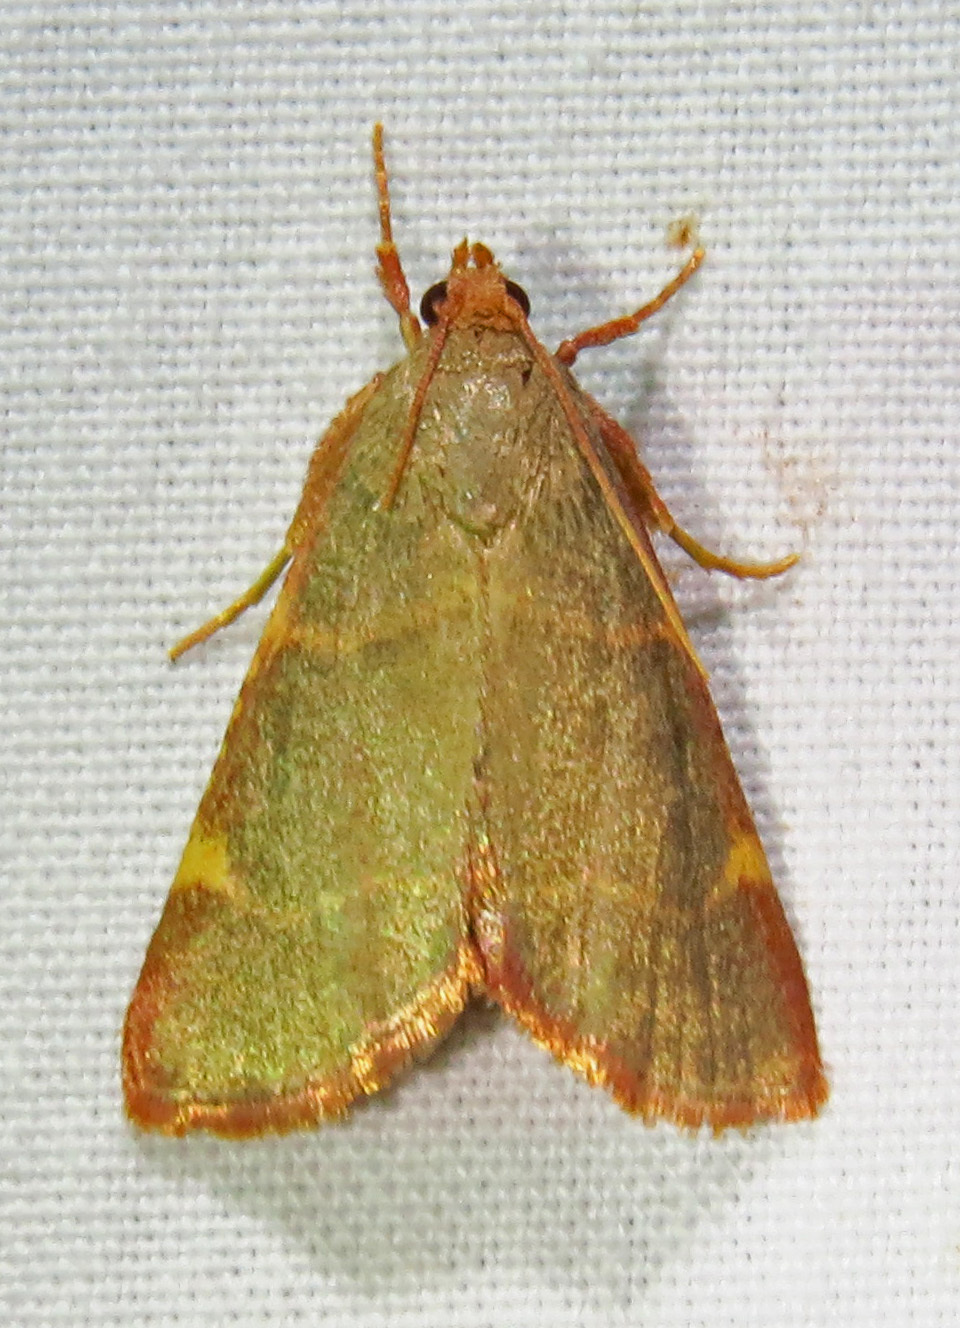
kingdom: Animalia
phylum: Arthropoda
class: Insecta
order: Lepidoptera
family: Pyralidae
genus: Hypsopygia
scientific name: Hypsopygia binodulalis
